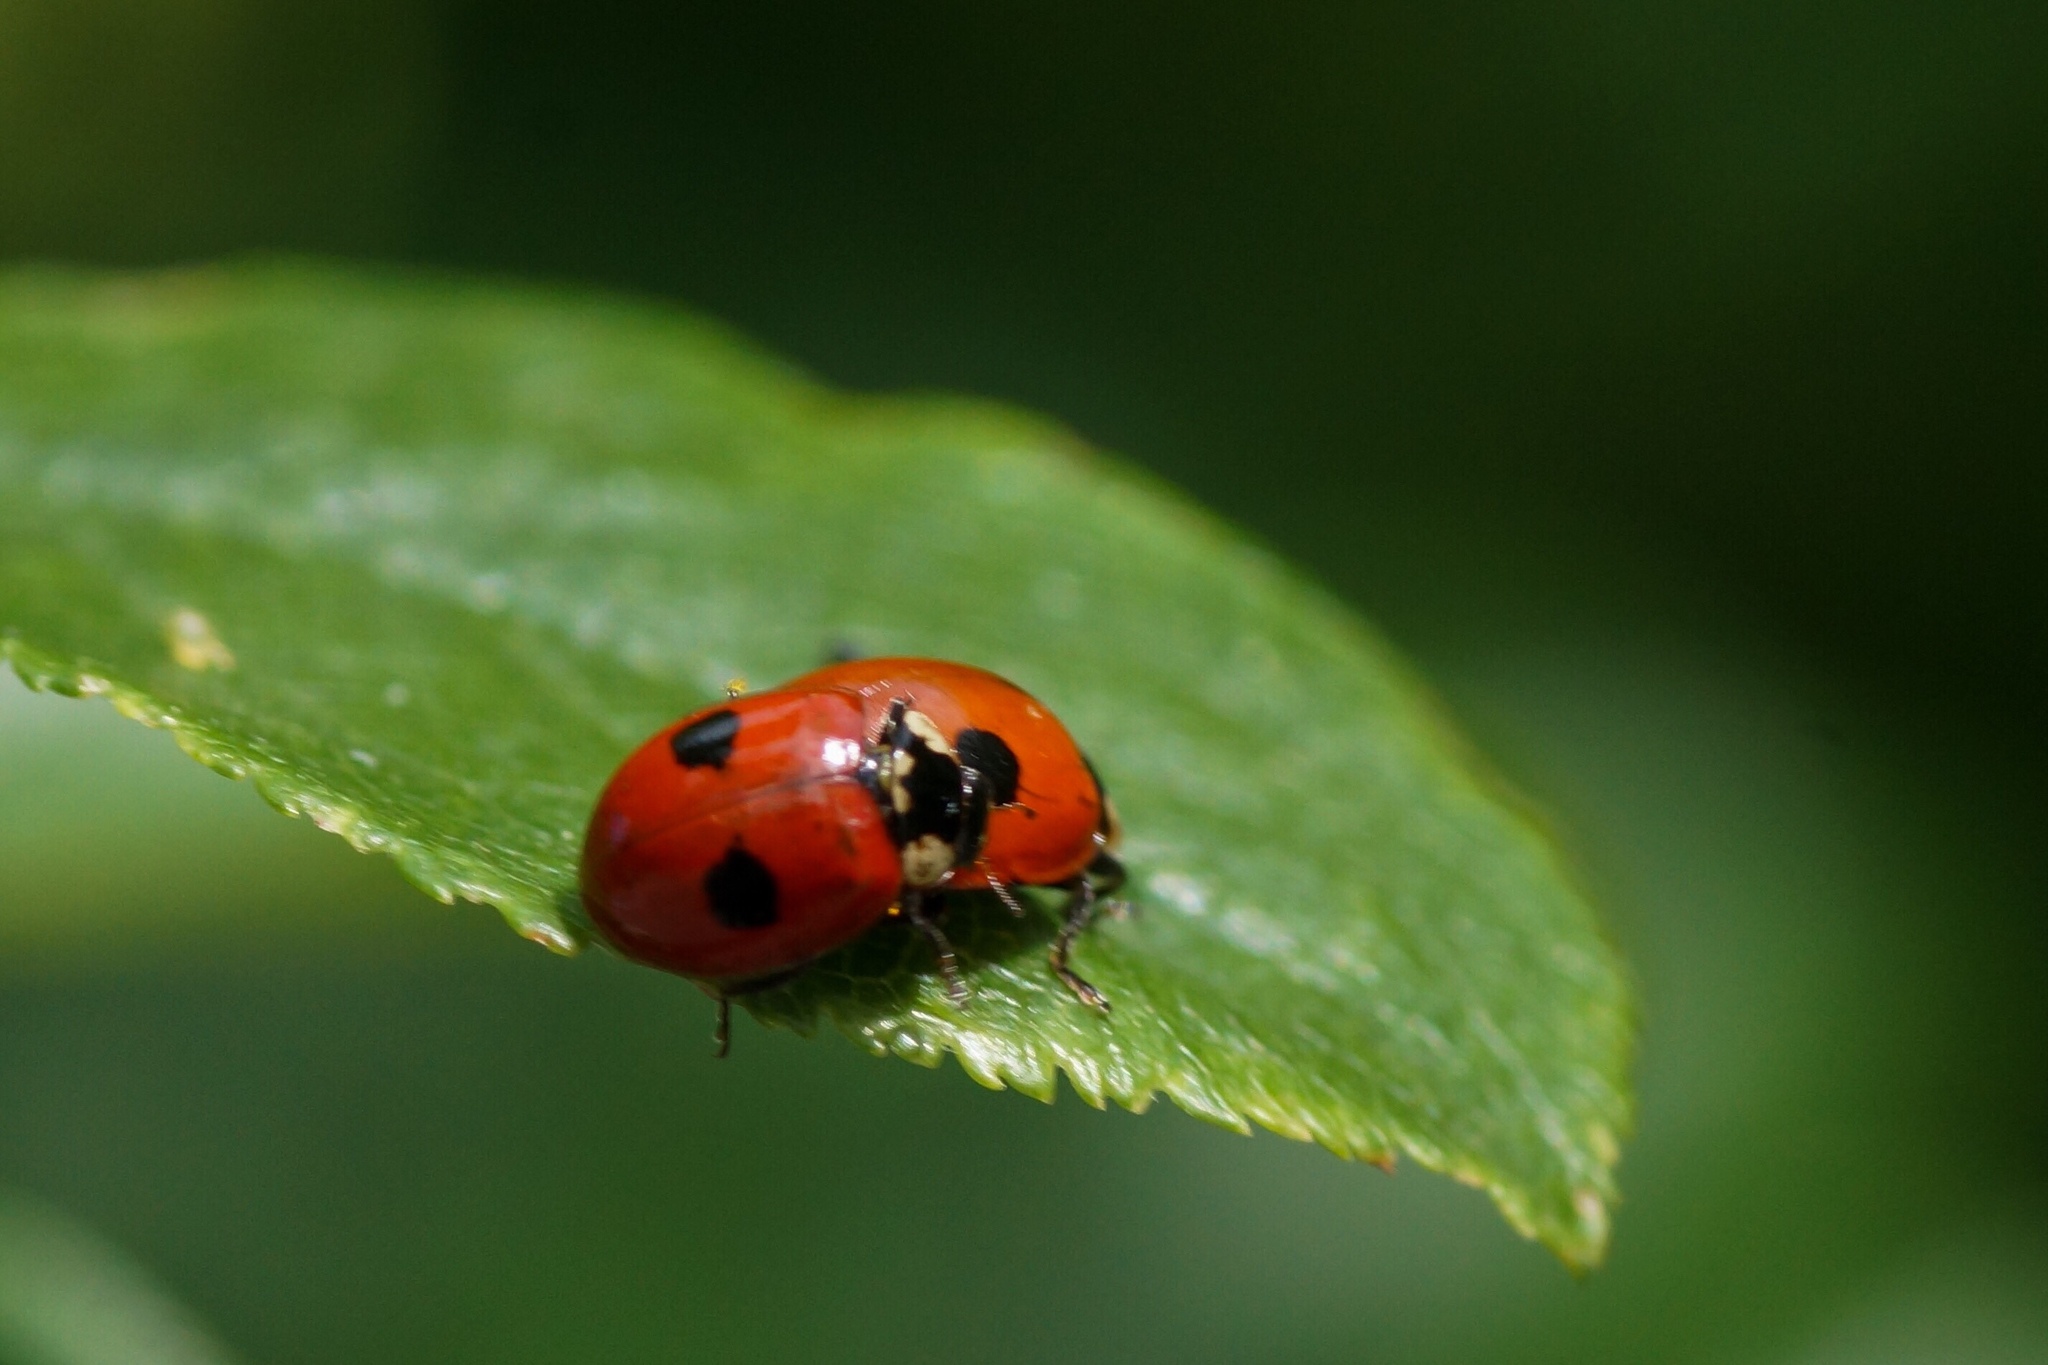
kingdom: Animalia
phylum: Arthropoda
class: Insecta
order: Coleoptera
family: Coccinellidae
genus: Adalia
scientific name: Adalia bipunctata
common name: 2-spot ladybird
